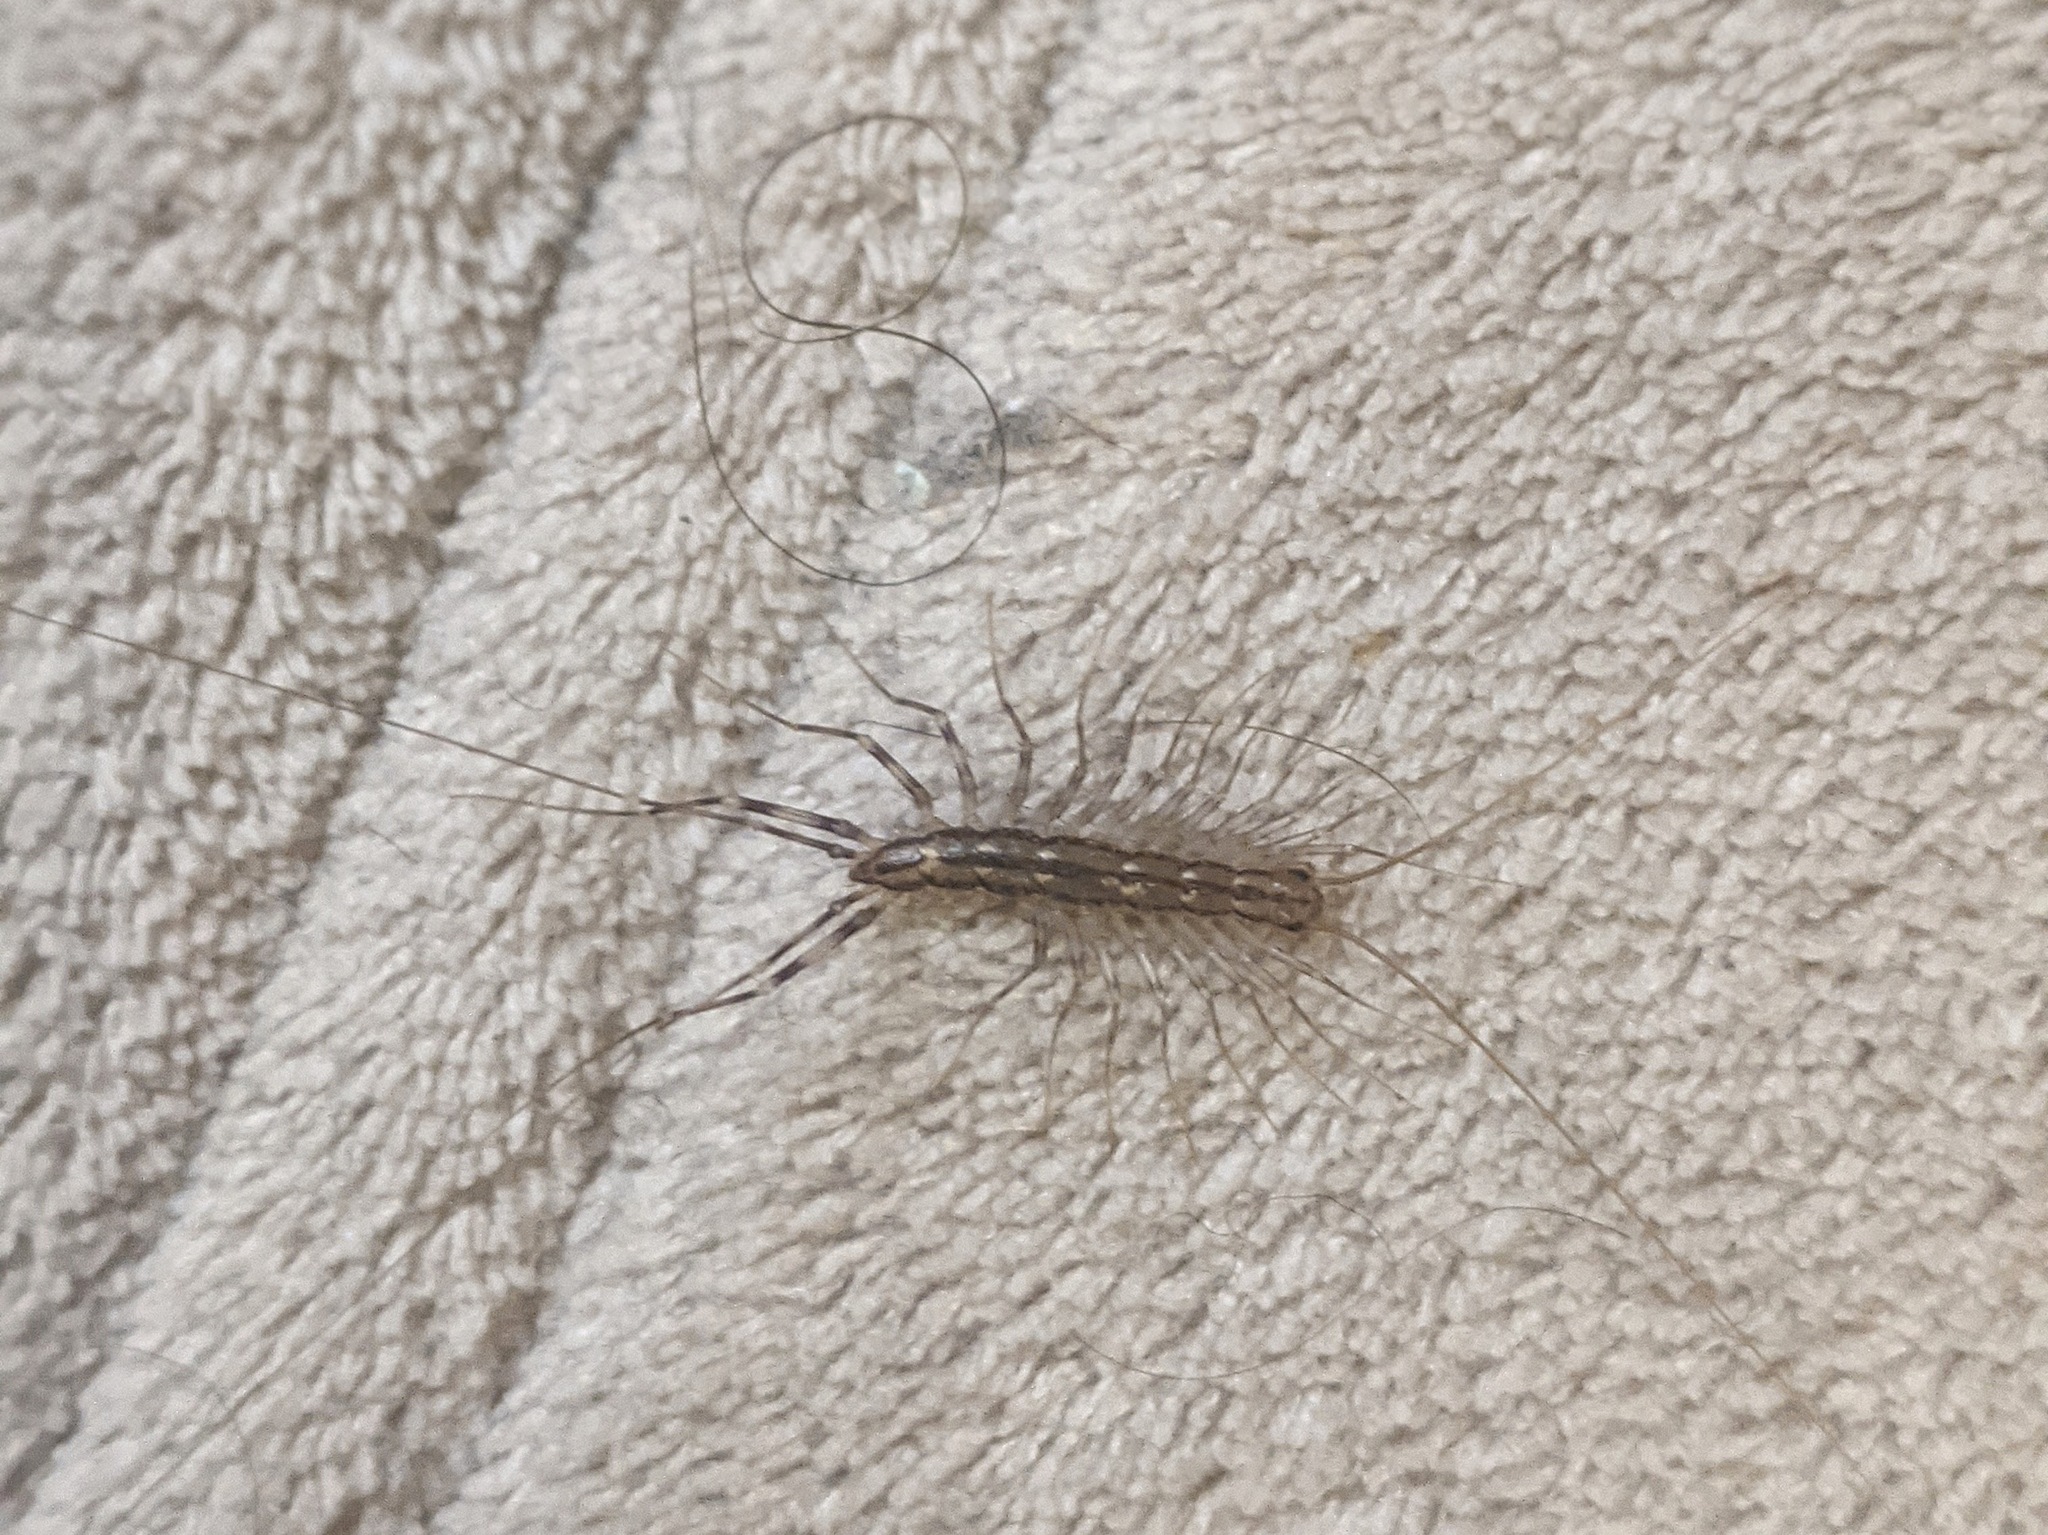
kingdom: Animalia
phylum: Arthropoda
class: Chilopoda
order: Scutigeromorpha
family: Scutigeridae
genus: Scutigera
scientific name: Scutigera coleoptrata
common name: House centipede
